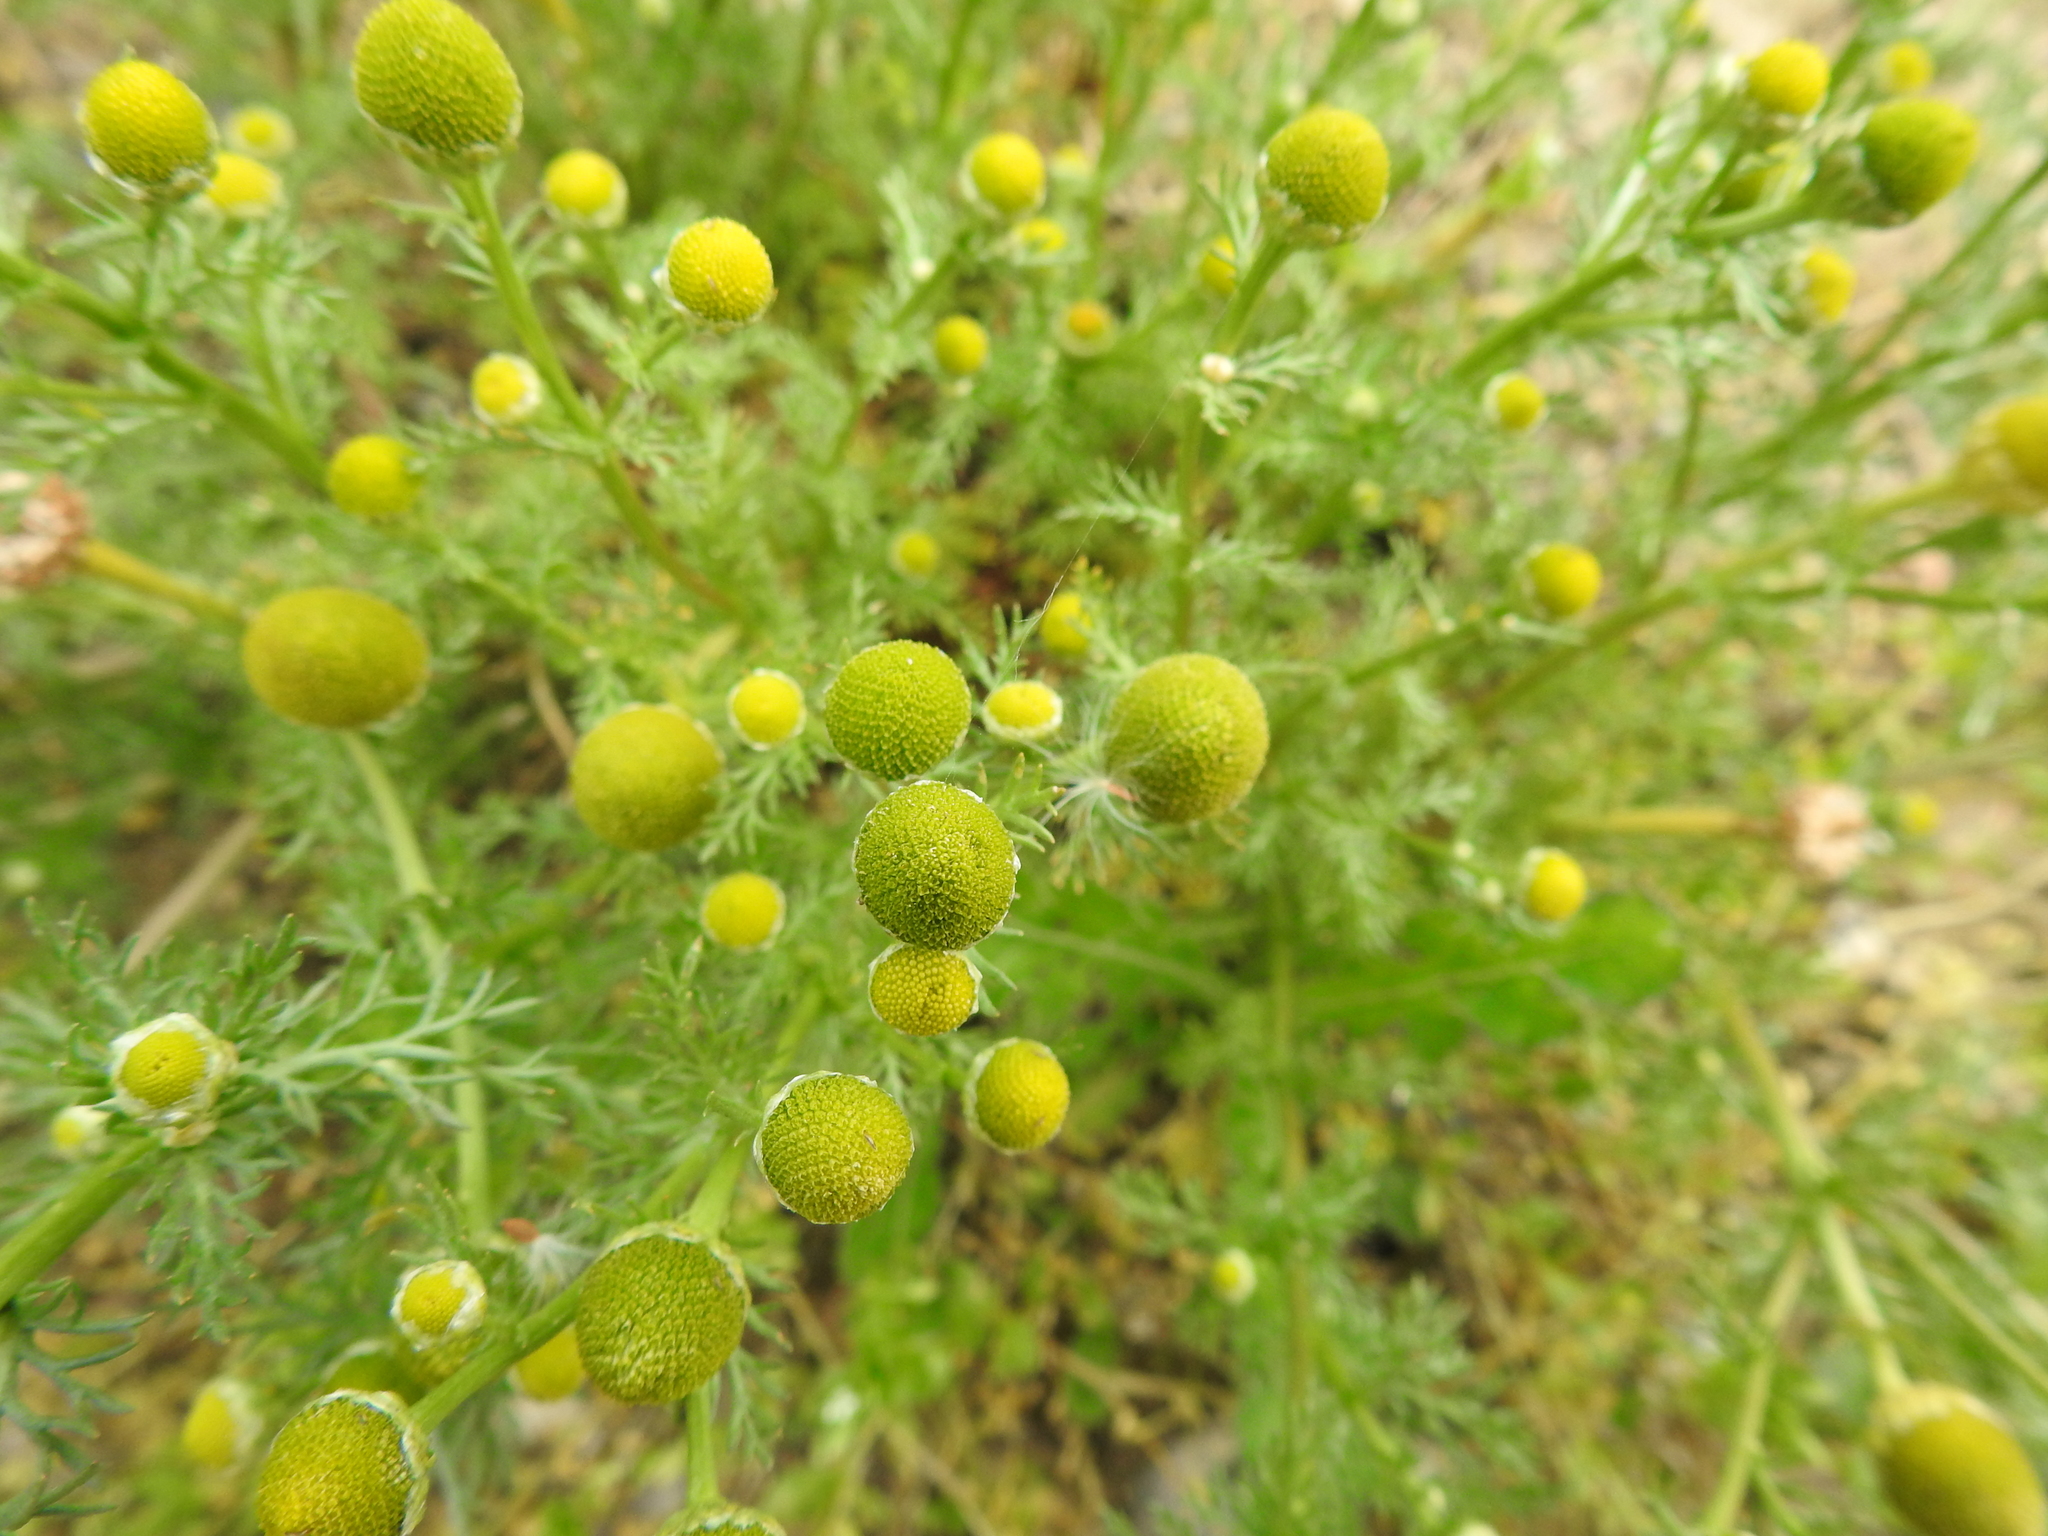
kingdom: Plantae
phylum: Tracheophyta
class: Magnoliopsida
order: Asterales
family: Asteraceae
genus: Matricaria
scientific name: Matricaria discoidea
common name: Disc mayweed
